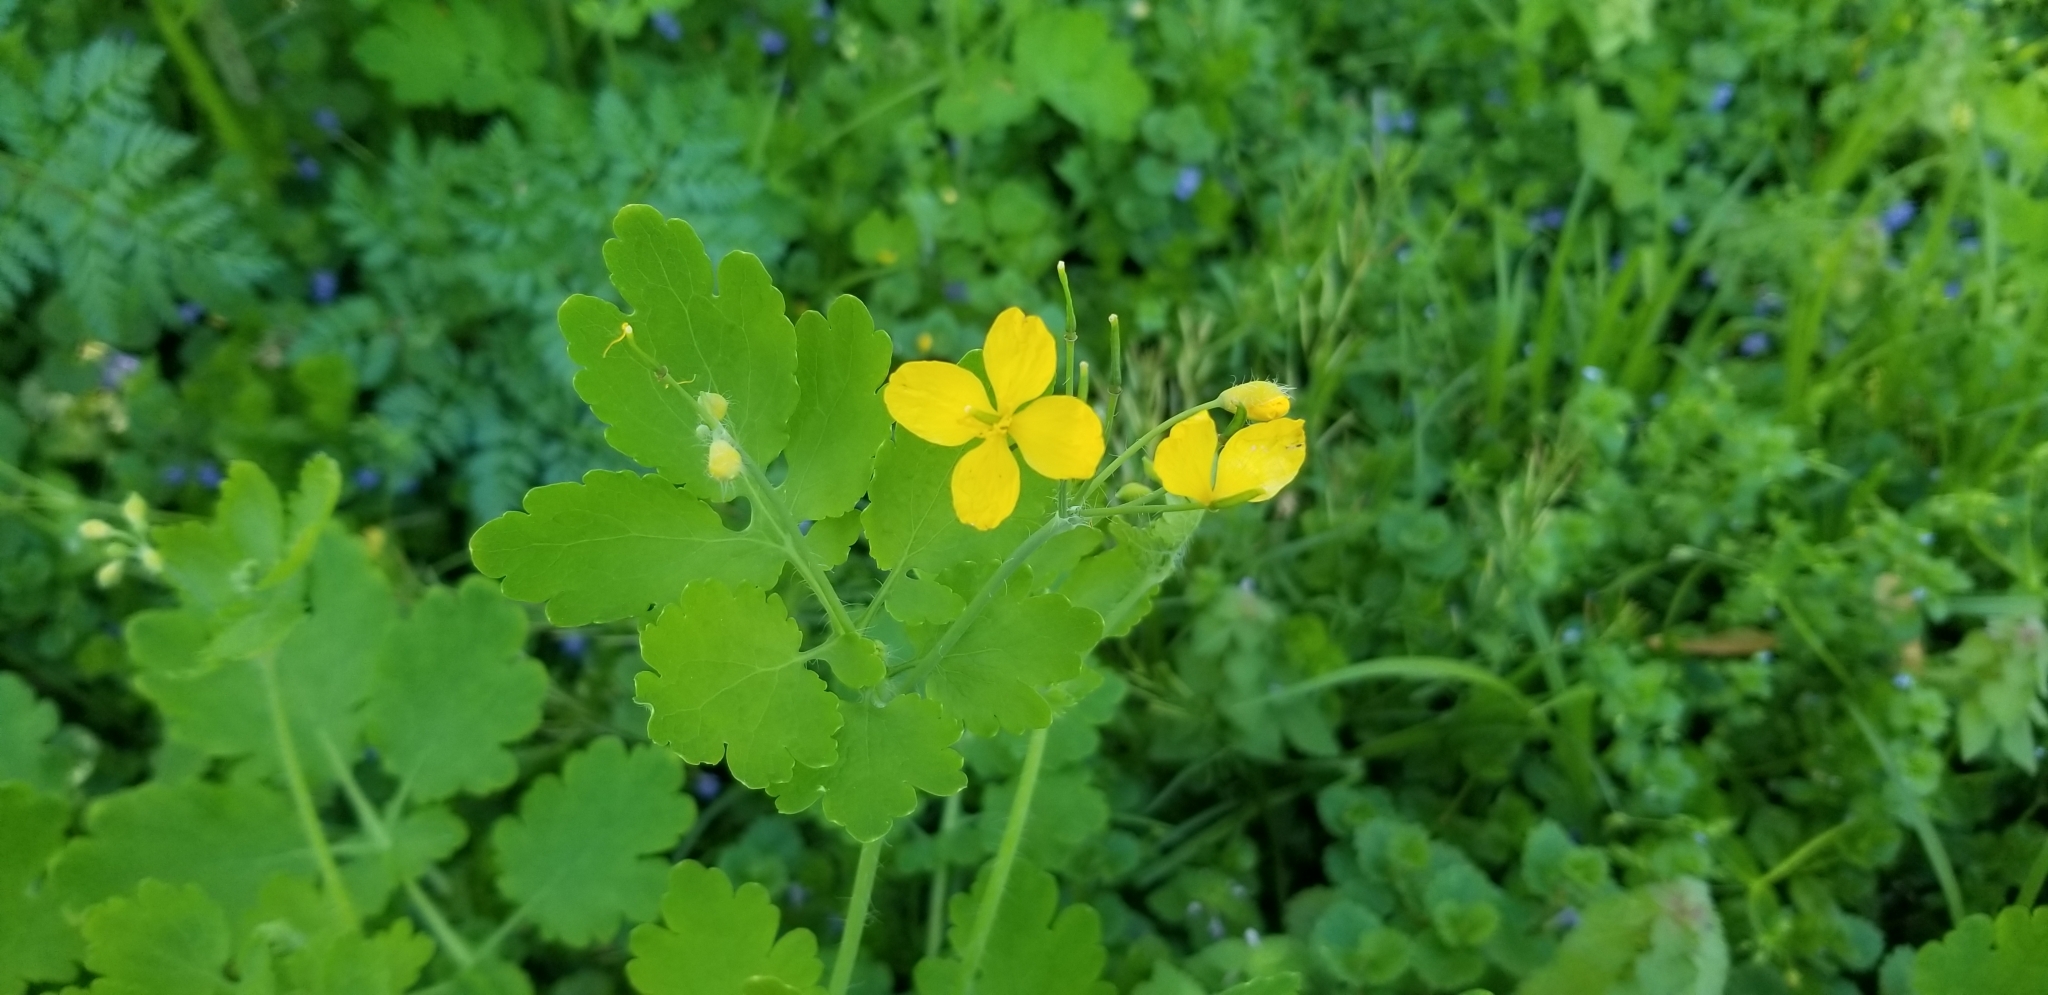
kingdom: Plantae
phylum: Tracheophyta
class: Magnoliopsida
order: Ranunculales
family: Papaveraceae
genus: Chelidonium
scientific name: Chelidonium majus
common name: Greater celandine
